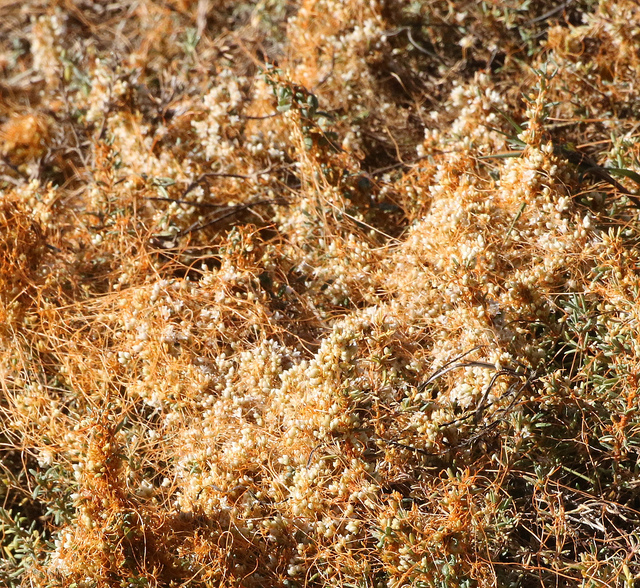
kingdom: Plantae
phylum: Tracheophyta
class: Magnoliopsida
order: Solanales
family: Convolvulaceae
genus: Cuscuta
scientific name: Cuscuta pacifica
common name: Large saltmarsh dodder
